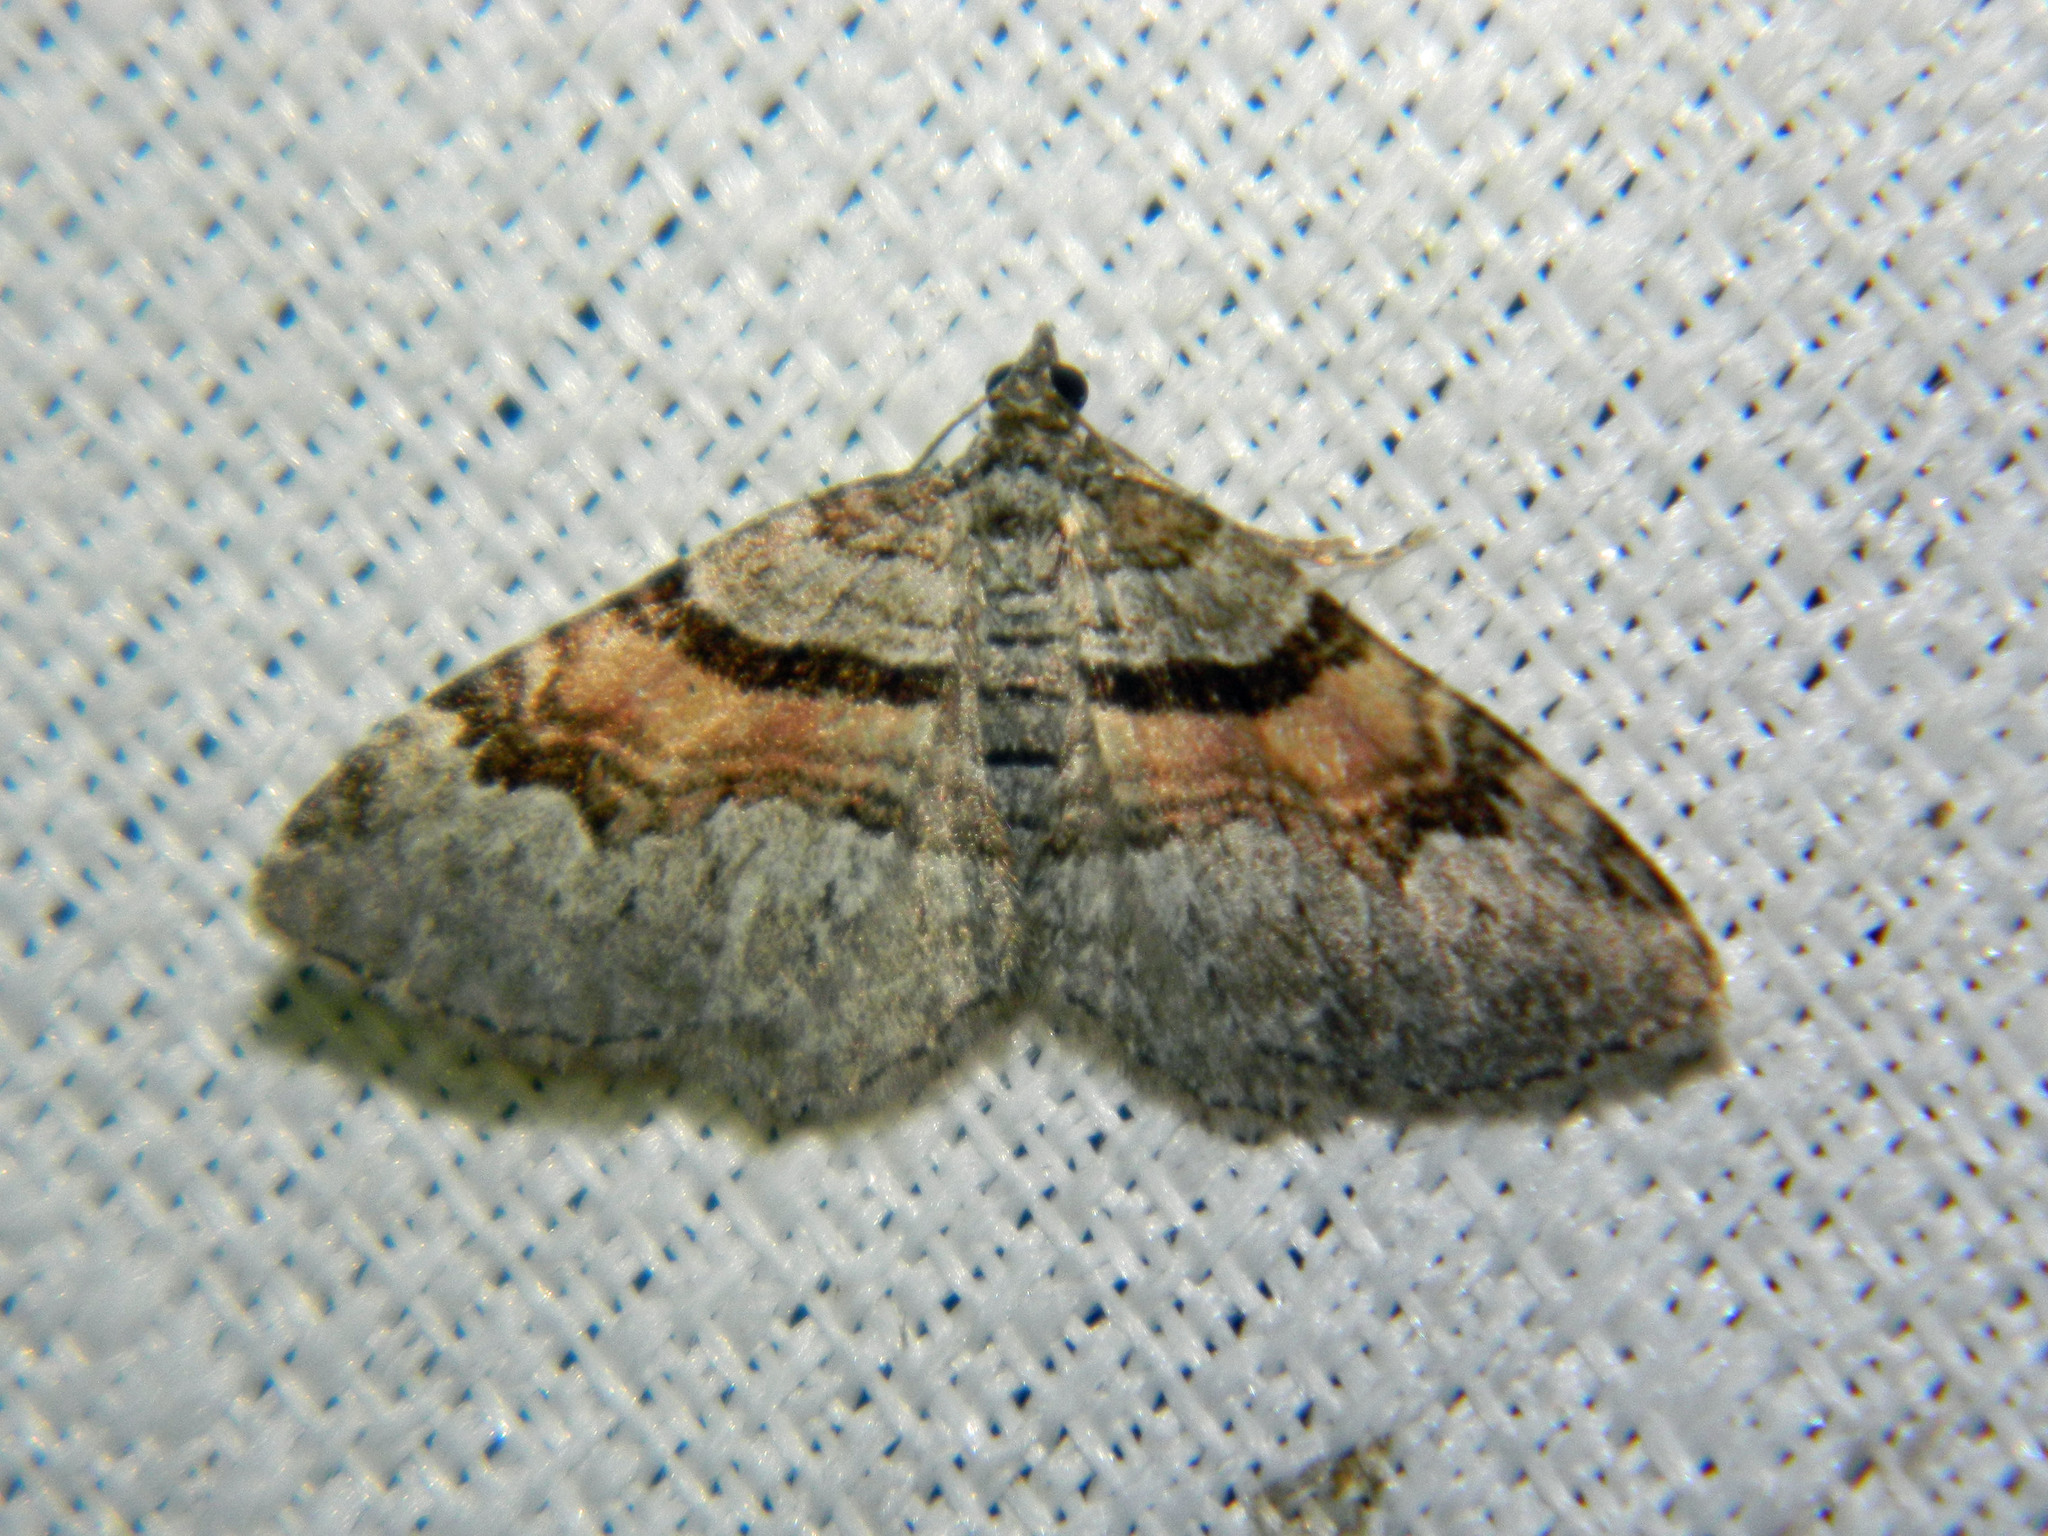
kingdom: Animalia
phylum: Arthropoda
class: Insecta
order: Lepidoptera
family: Geometridae
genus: Xanthorhoe
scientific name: Xanthorhoe packardata
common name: Packard's carpet
